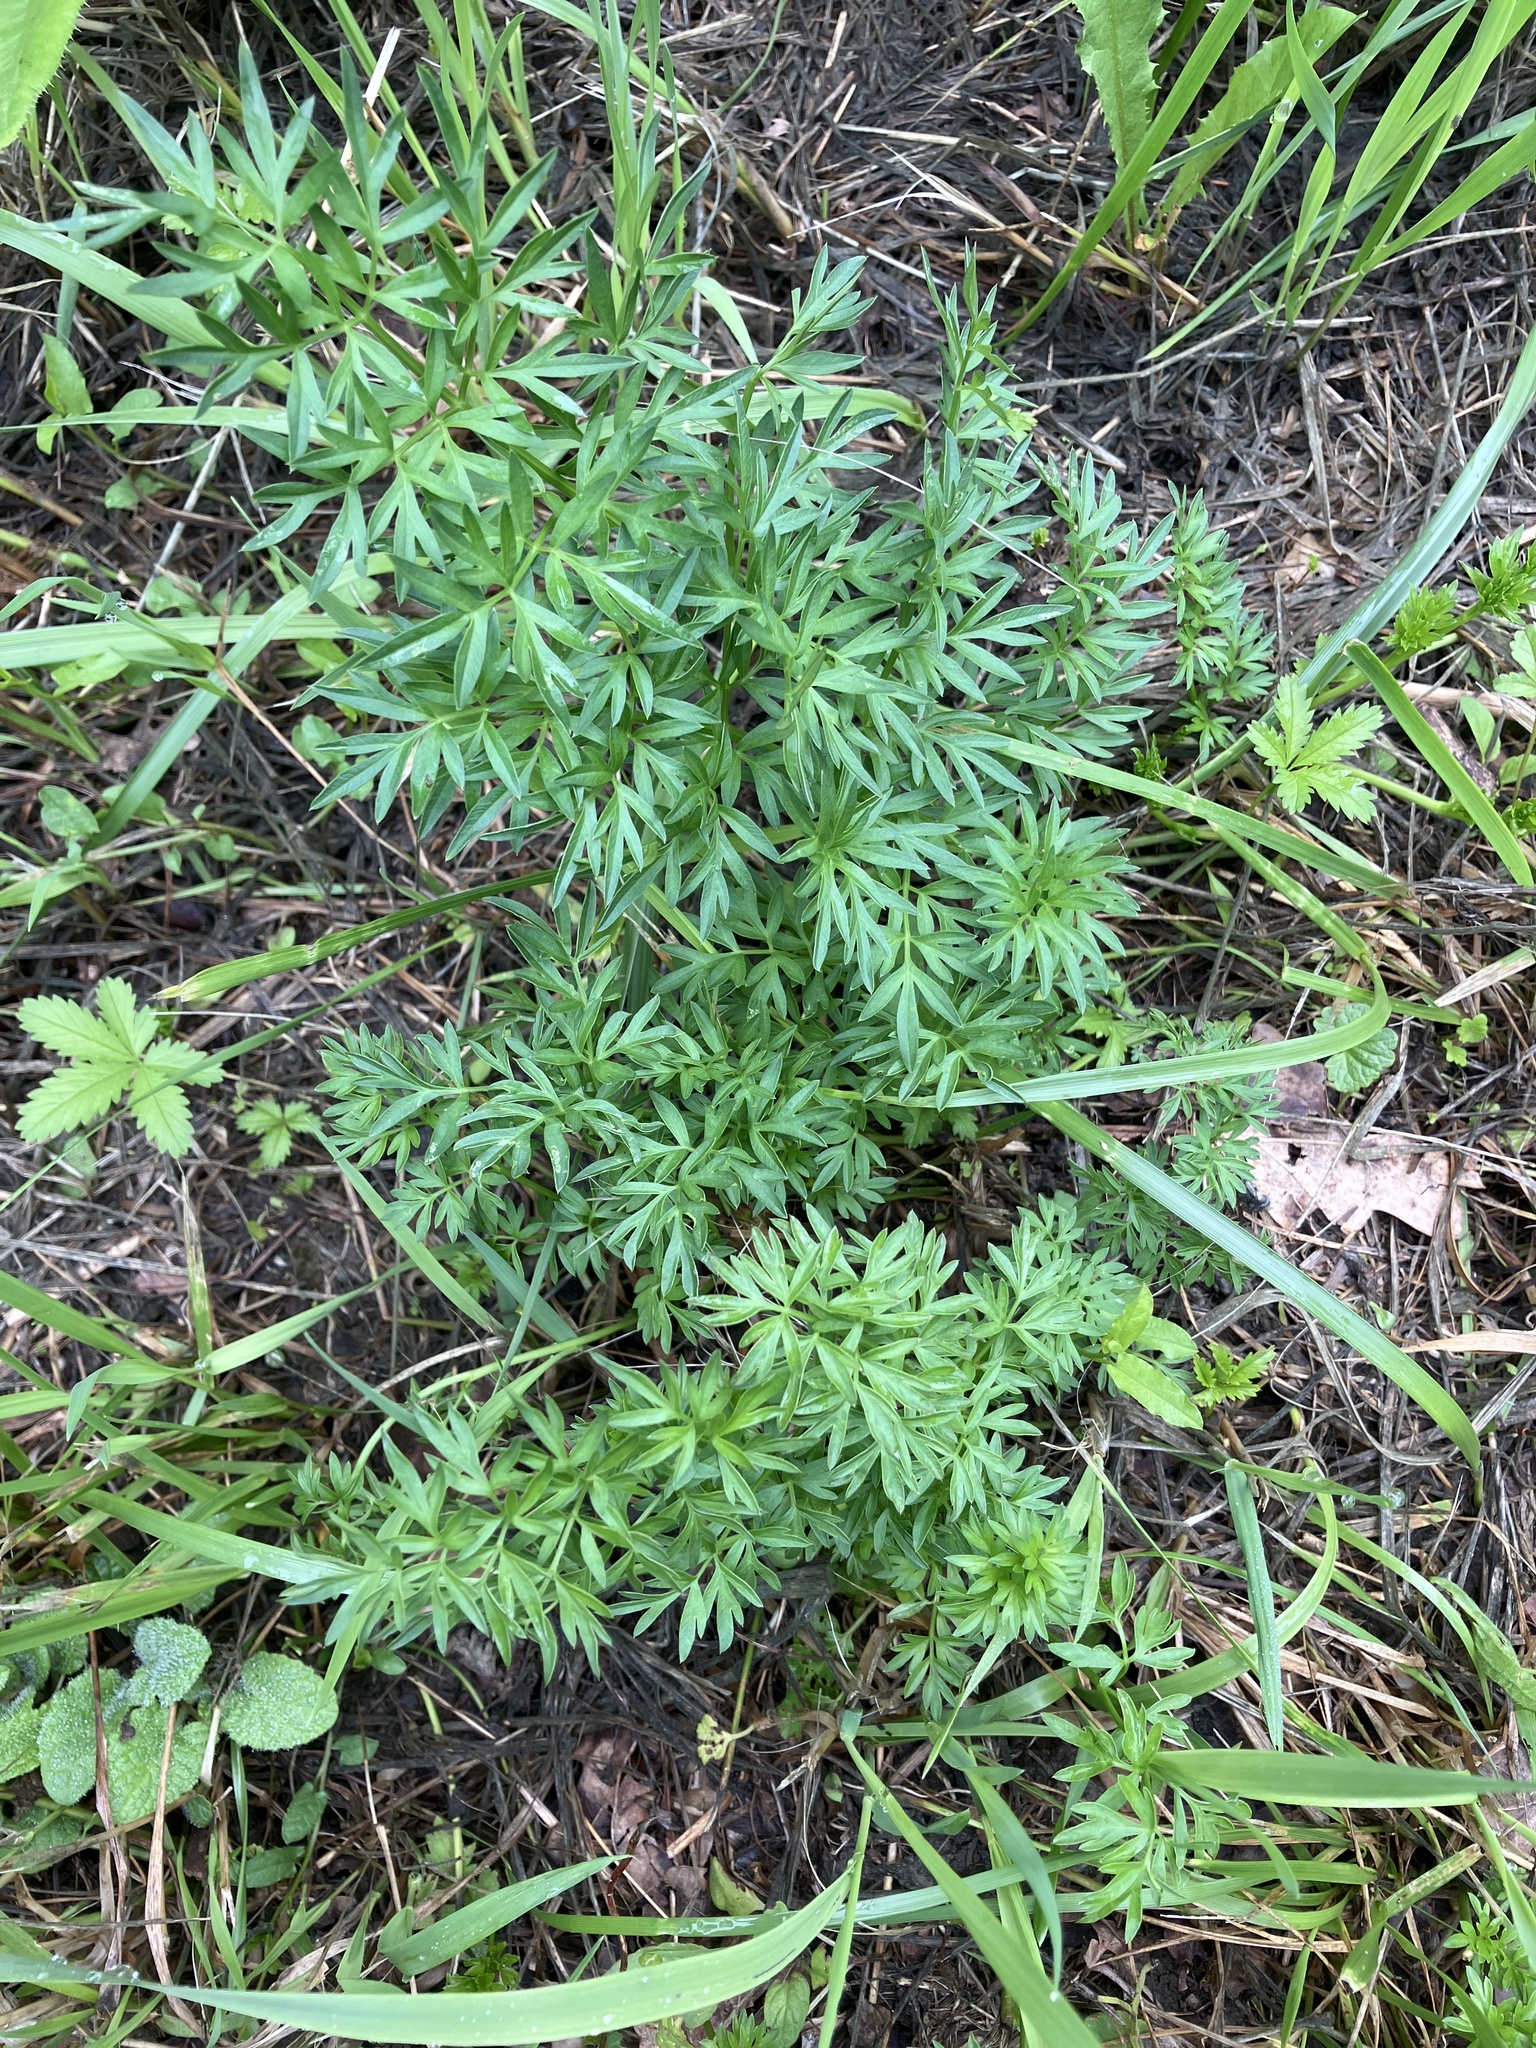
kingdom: Plantae
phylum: Tracheophyta
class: Magnoliopsida
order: Apiales
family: Apiaceae
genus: Silaum
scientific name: Silaum silaus
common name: Pepper-saxifrage
